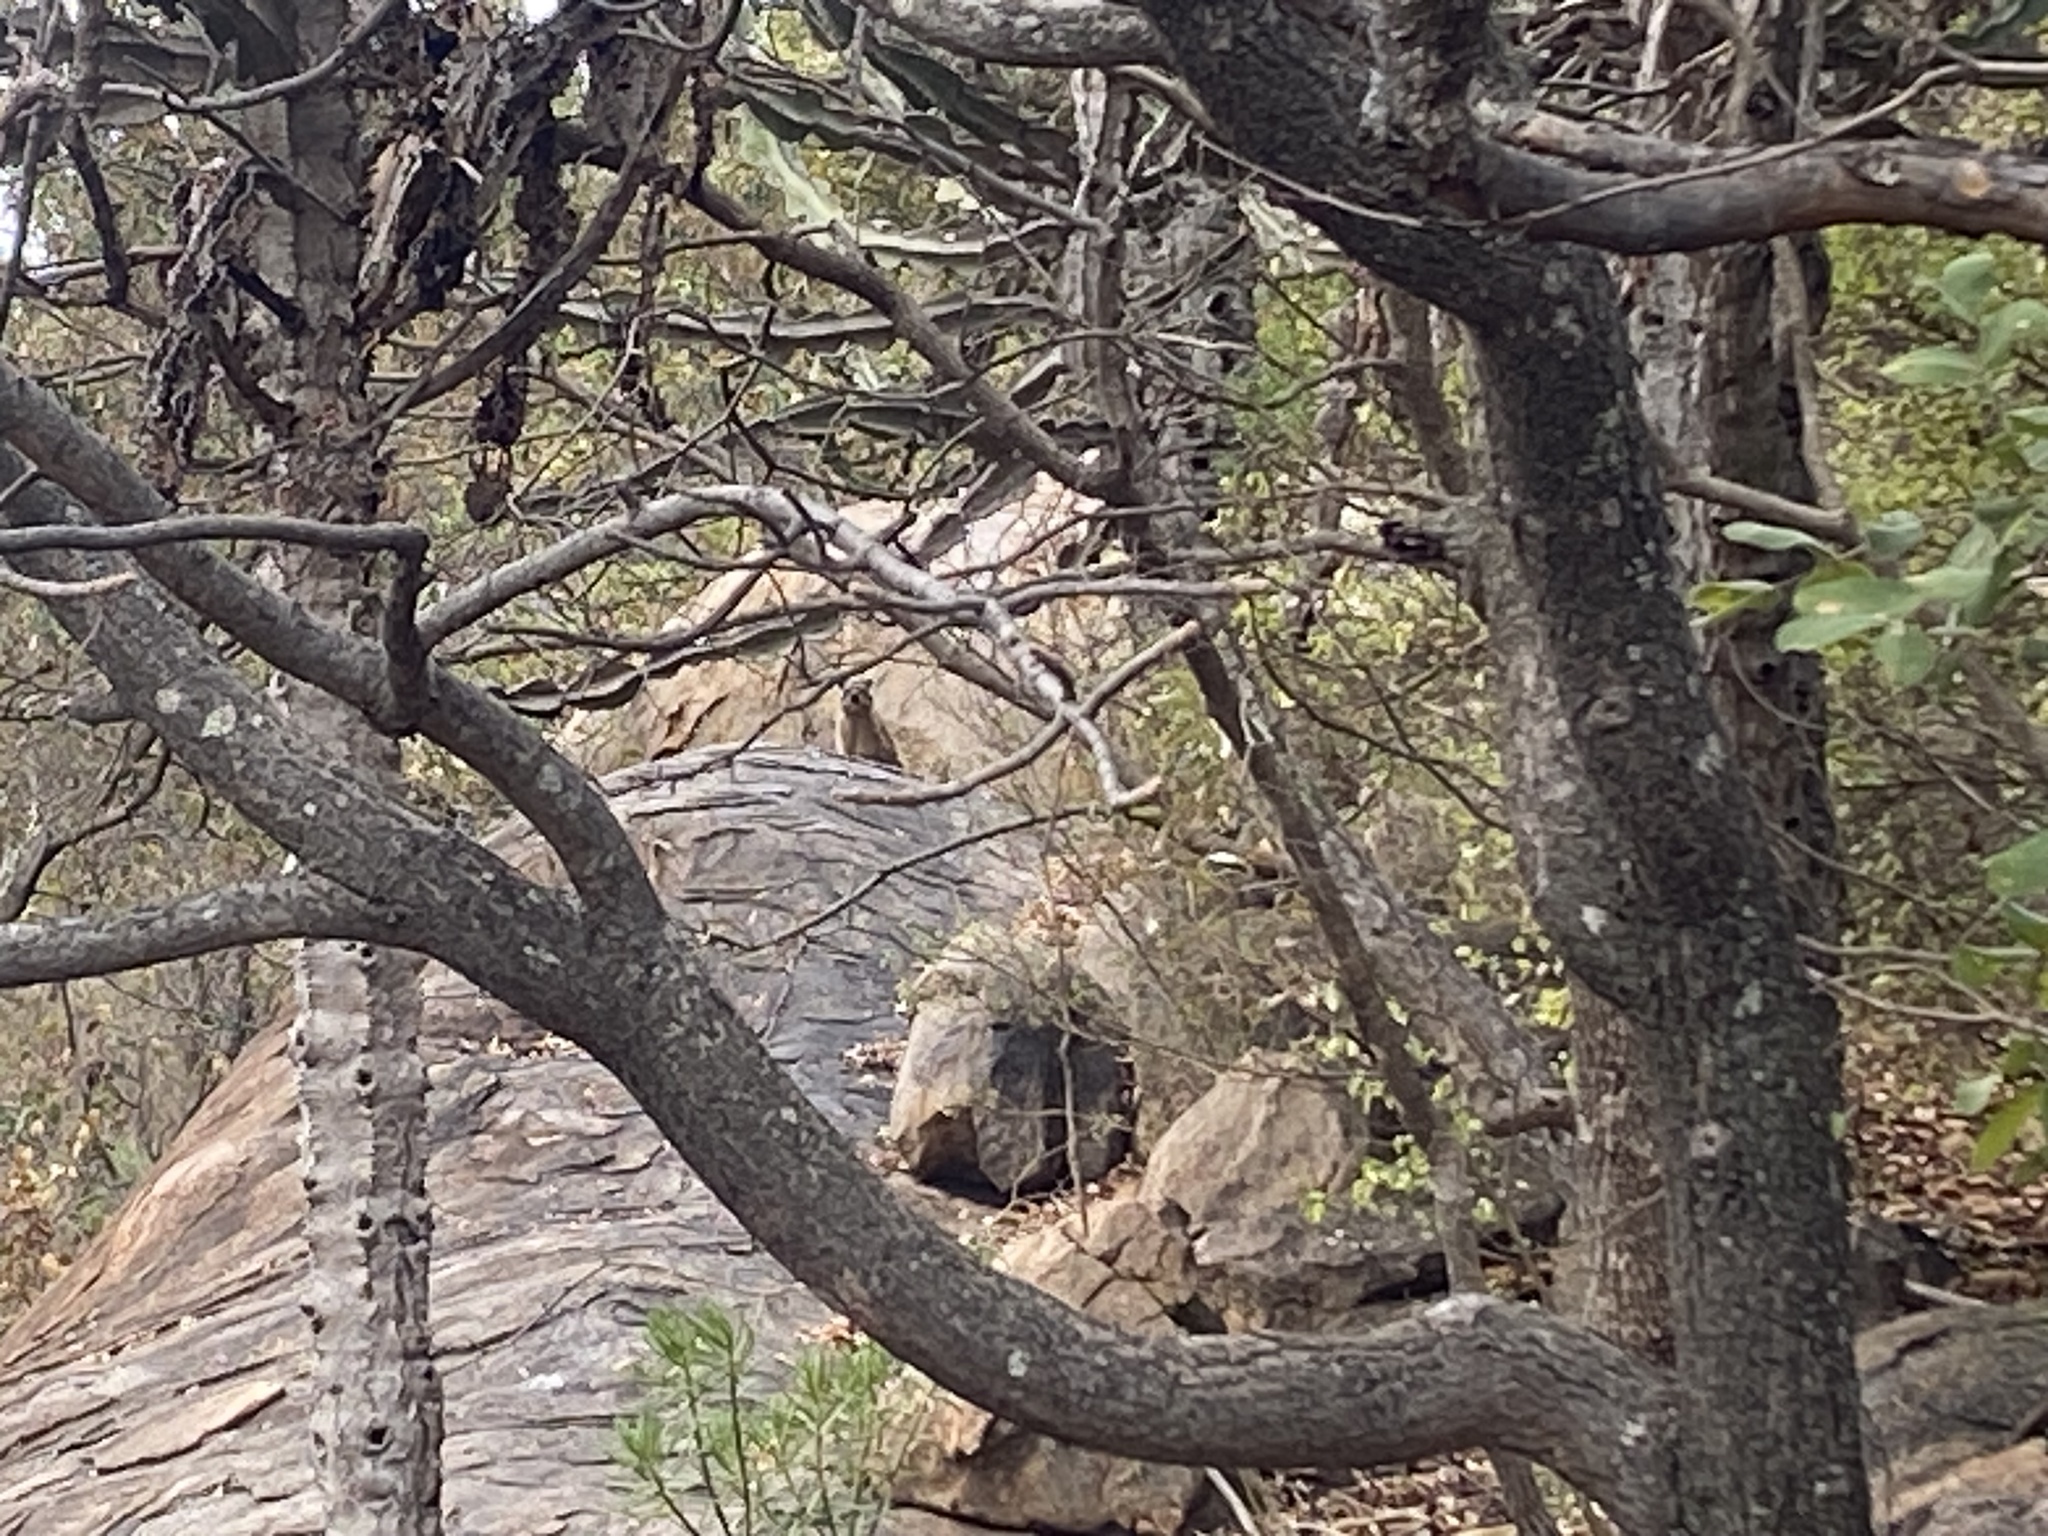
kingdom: Animalia
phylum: Chordata
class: Mammalia
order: Hyracoidea
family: Procaviidae
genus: Procavia
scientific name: Procavia capensis
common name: Rock hyrax
